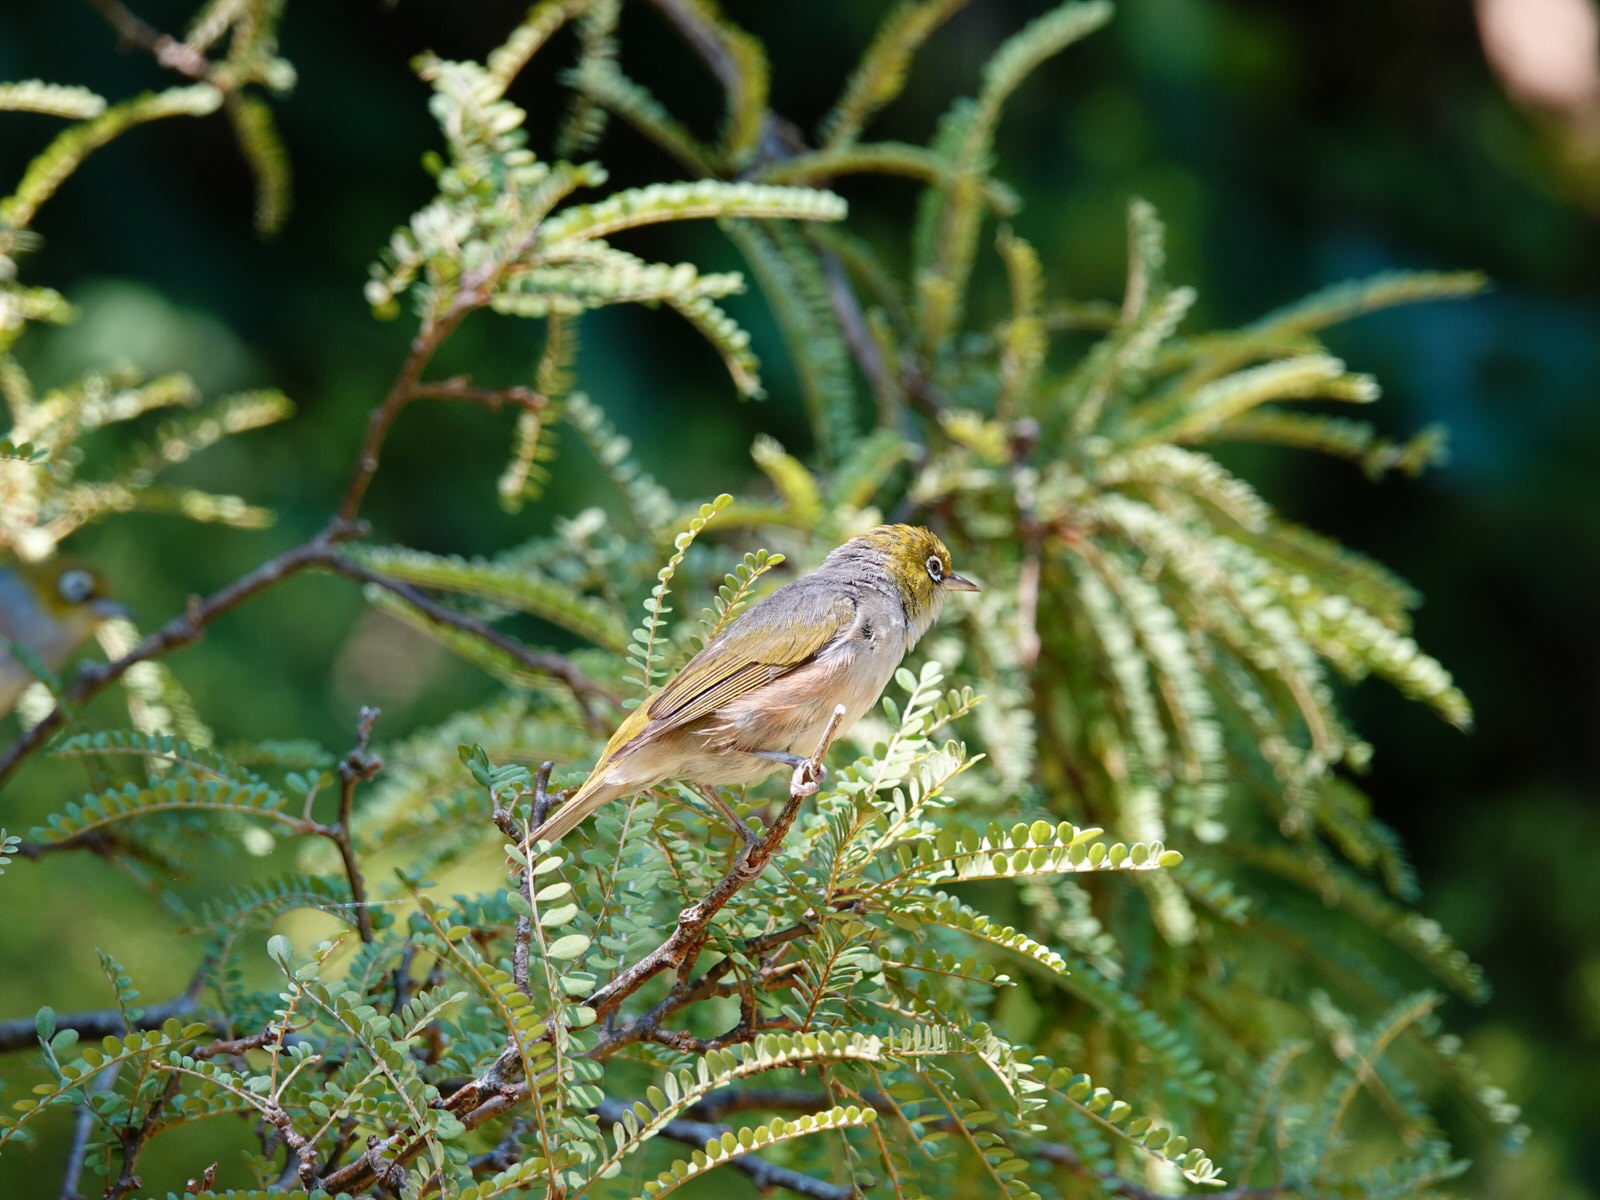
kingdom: Animalia
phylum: Chordata
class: Aves
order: Passeriformes
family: Zosteropidae
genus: Zosterops
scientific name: Zosterops lateralis
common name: Silvereye
